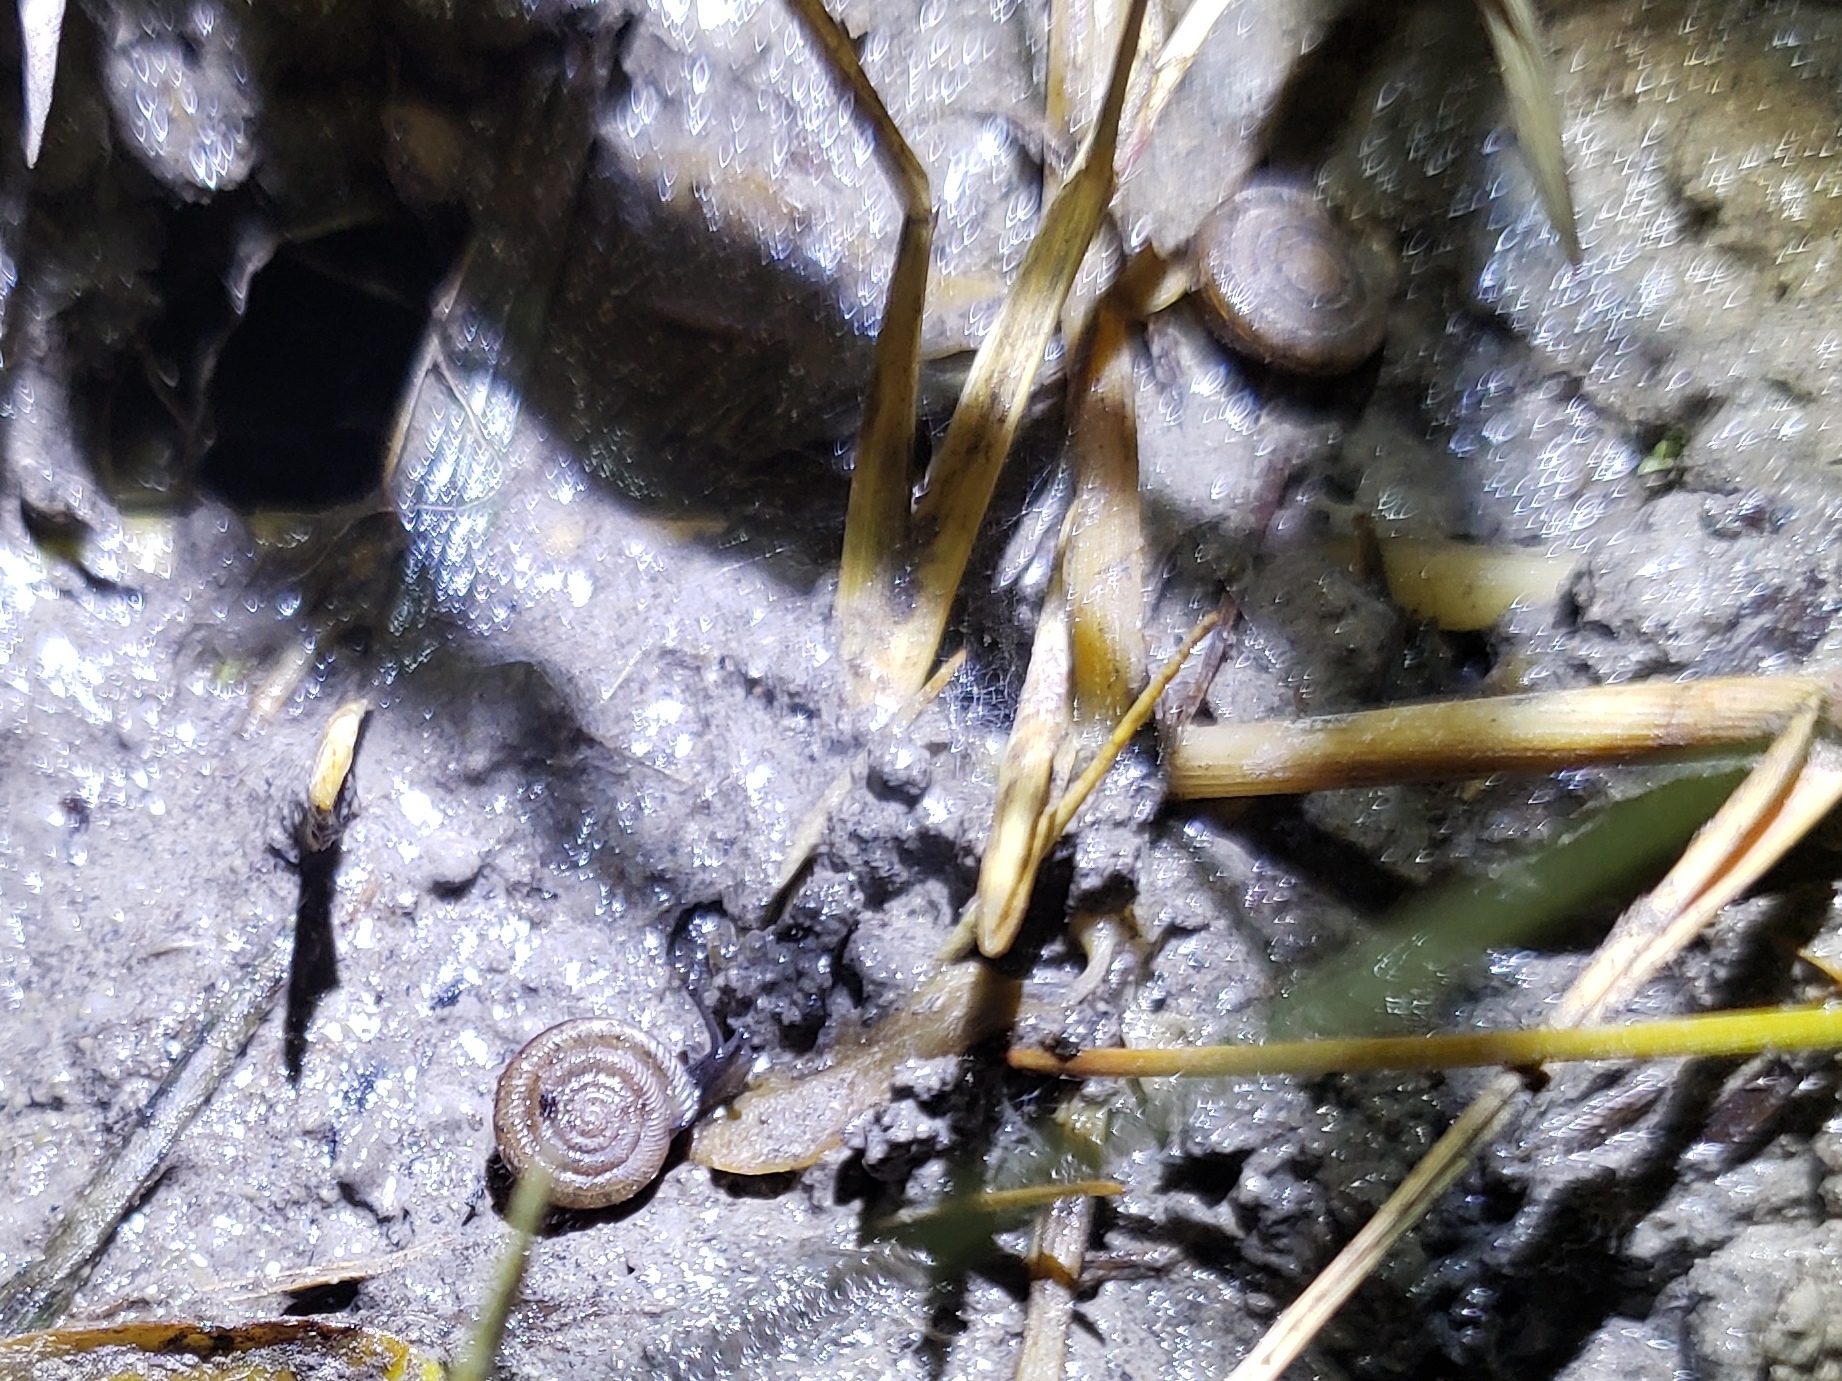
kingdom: Animalia
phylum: Mollusca
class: Gastropoda
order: Stylommatophora
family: Polygyridae
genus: Polygyra
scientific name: Polygyra cereolus
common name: Southern flatcone snail
